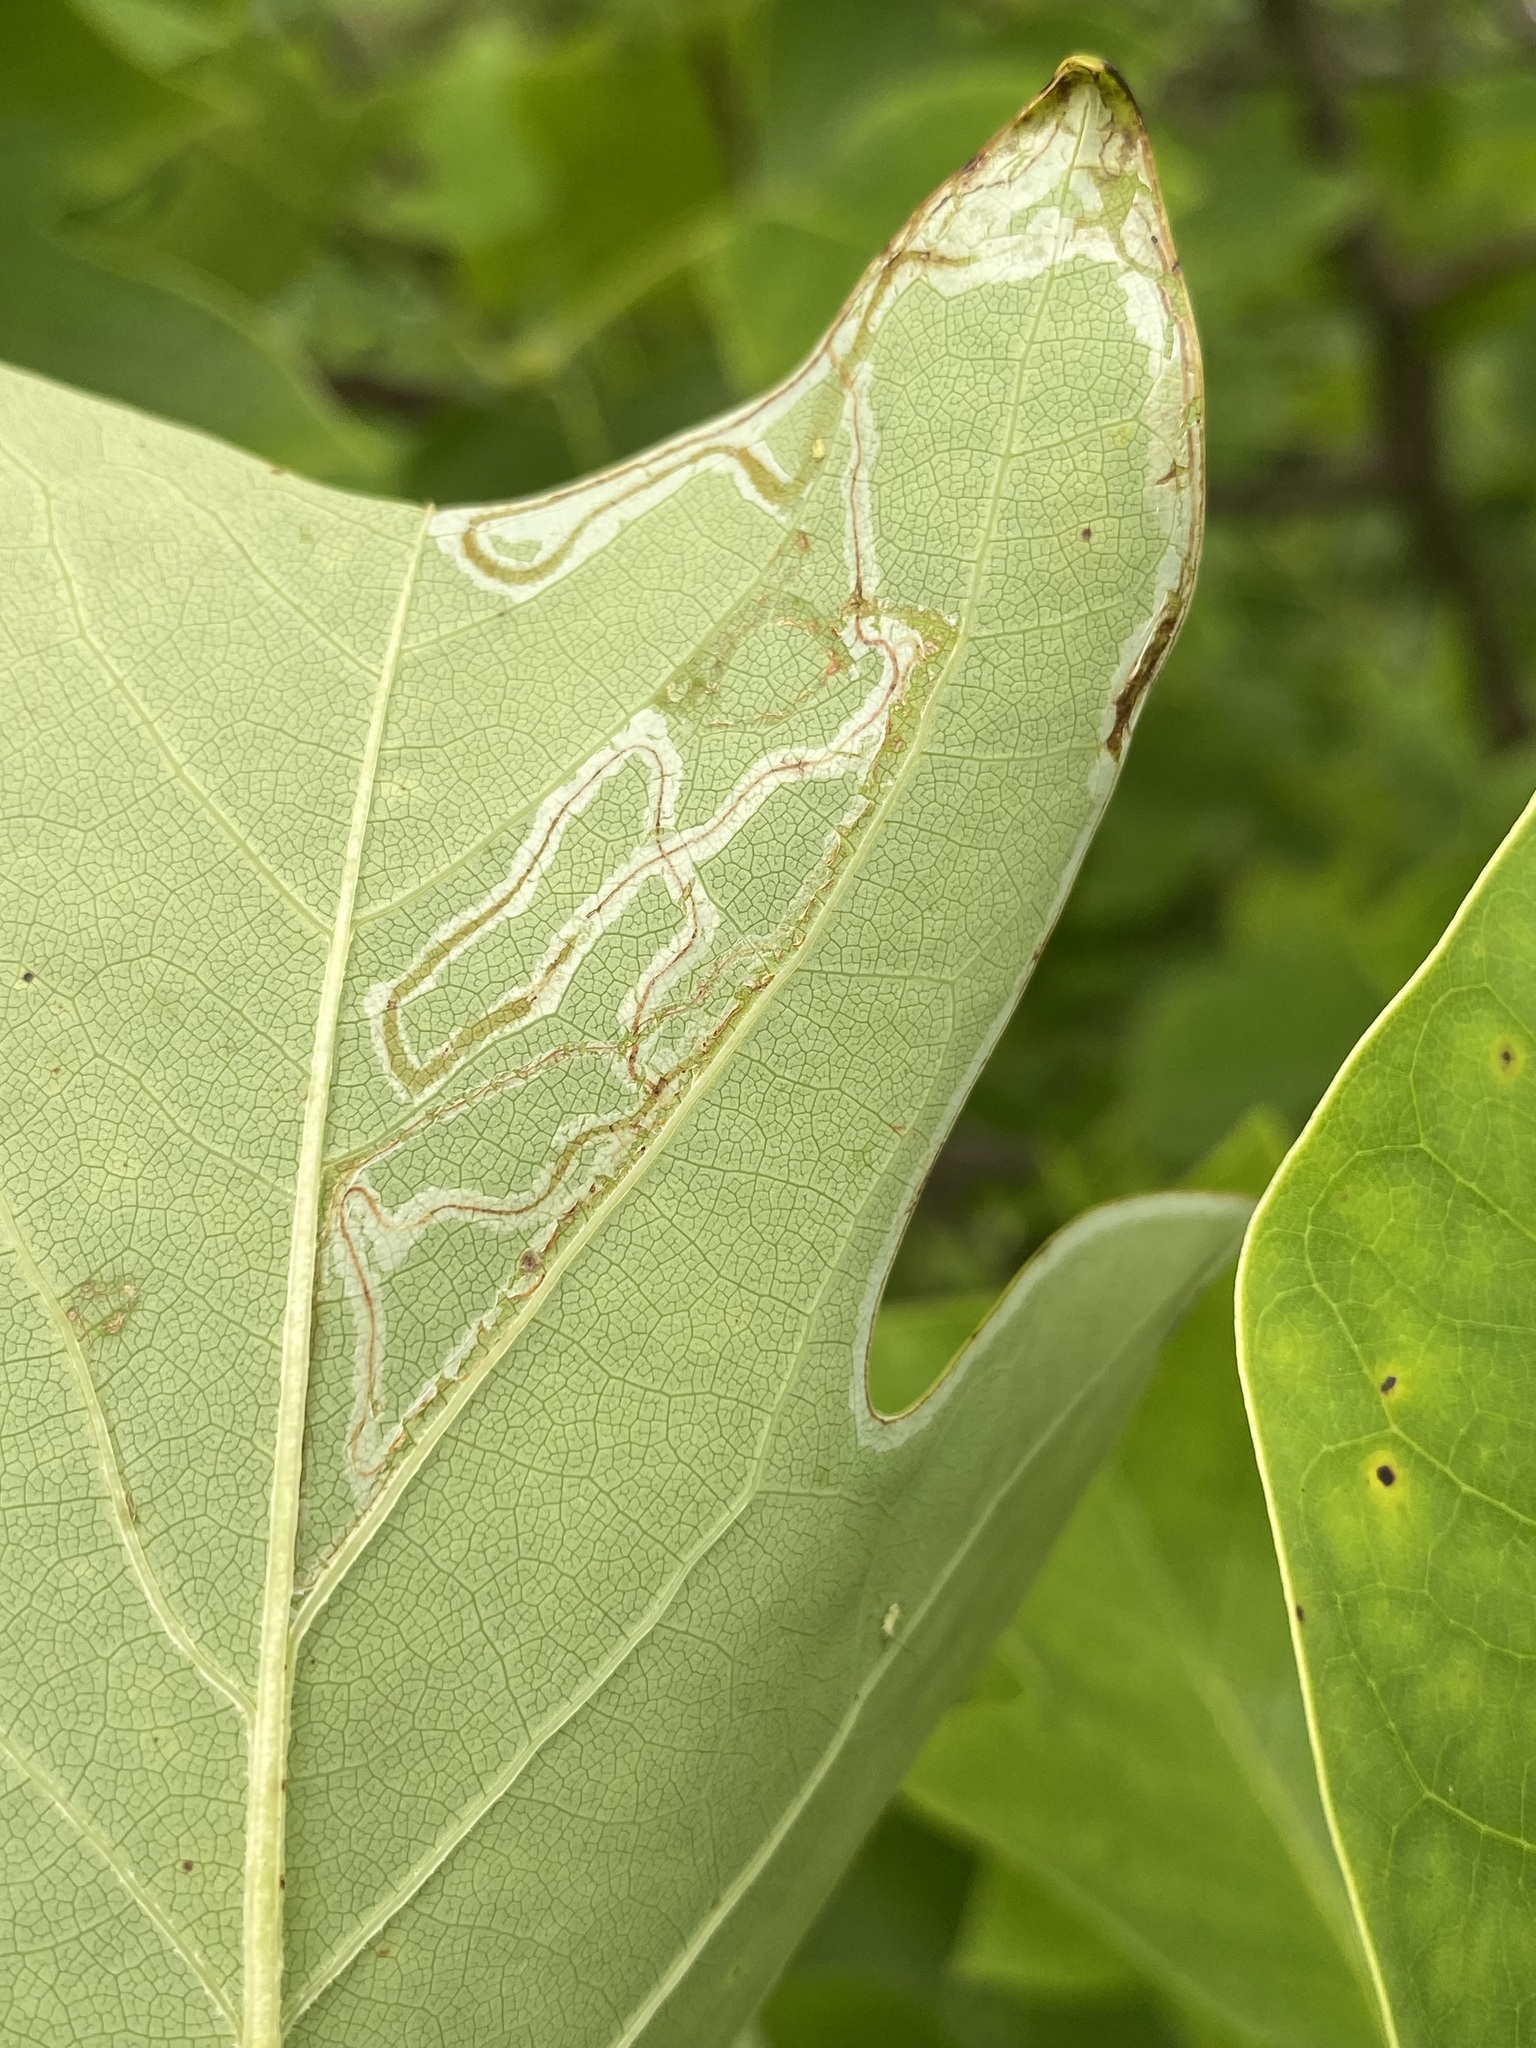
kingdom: Animalia
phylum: Arthropoda
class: Insecta
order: Lepidoptera
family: Gracillariidae
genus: Phyllocnistis
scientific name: Phyllocnistis liriodendronella
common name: Tulip tree leaf miner
